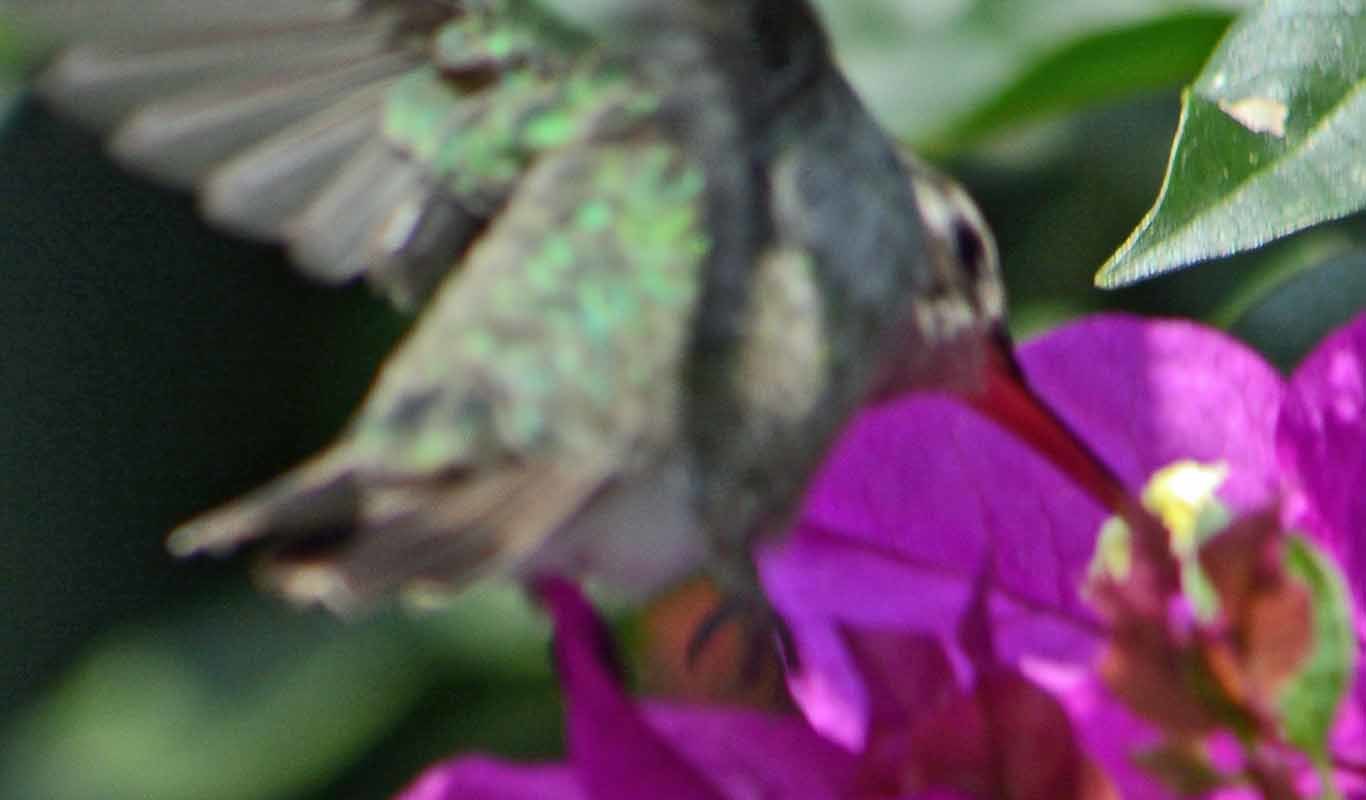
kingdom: Animalia
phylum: Chordata
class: Aves
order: Apodiformes
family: Trochilidae
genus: Cynanthus
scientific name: Cynanthus latirostris
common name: Broad-billed hummingbird
